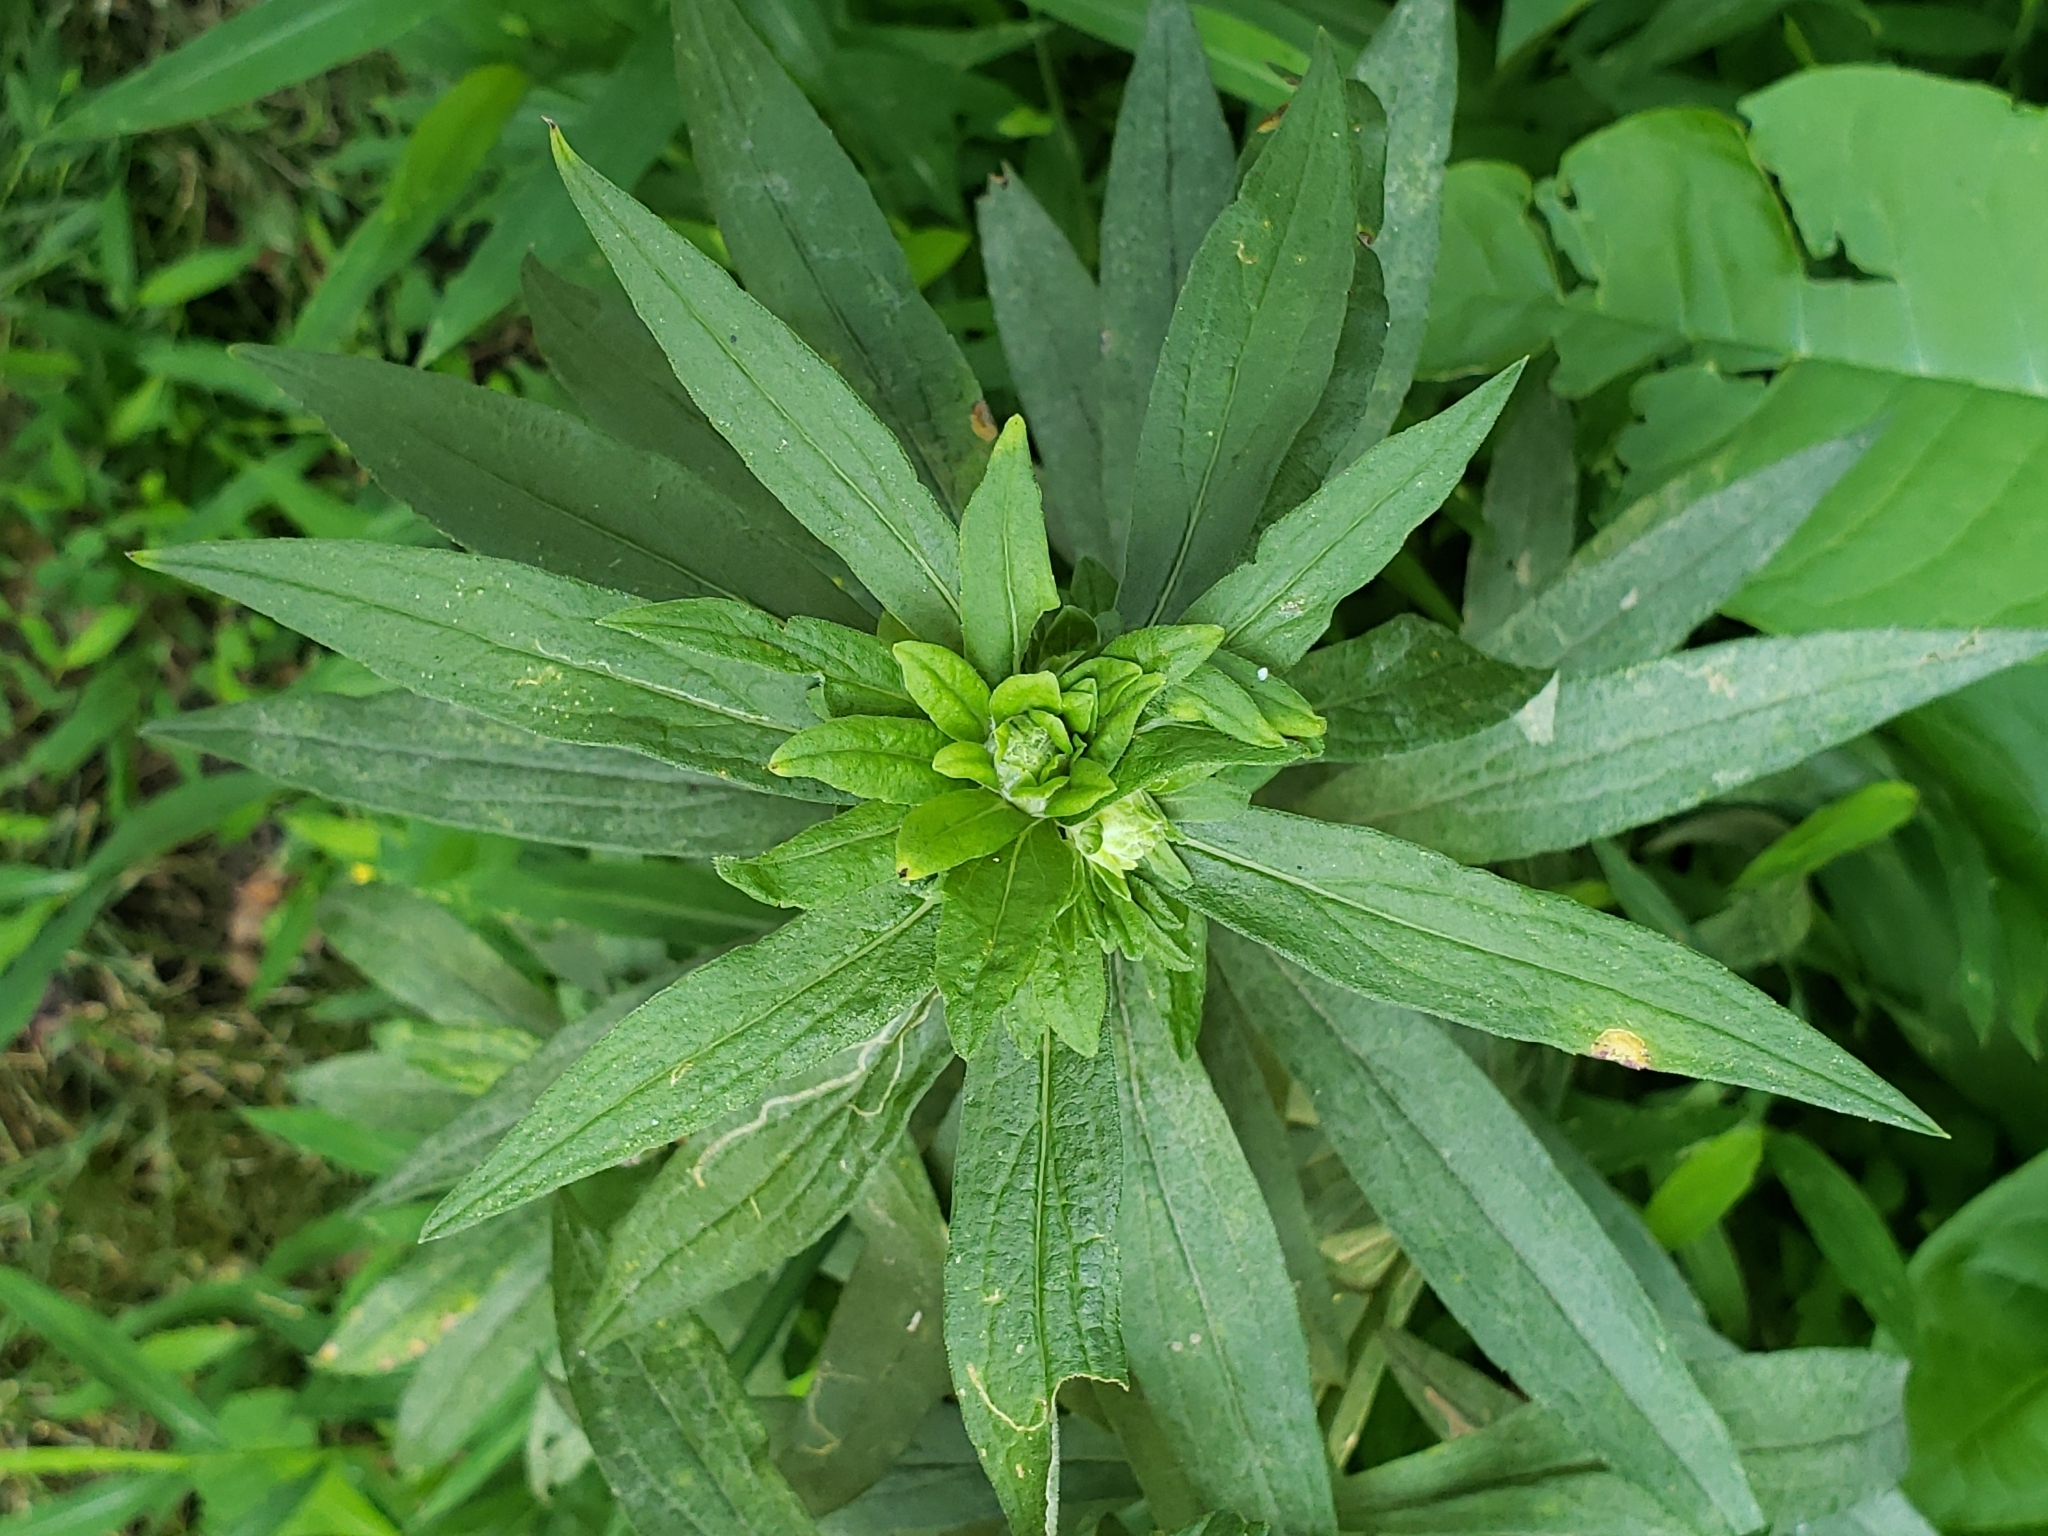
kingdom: Animalia
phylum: Arthropoda
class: Insecta
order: Diptera
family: Tephritidae
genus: Procecidochares
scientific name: Procecidochares atra
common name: Goldenrod brussels sprout gall fly
